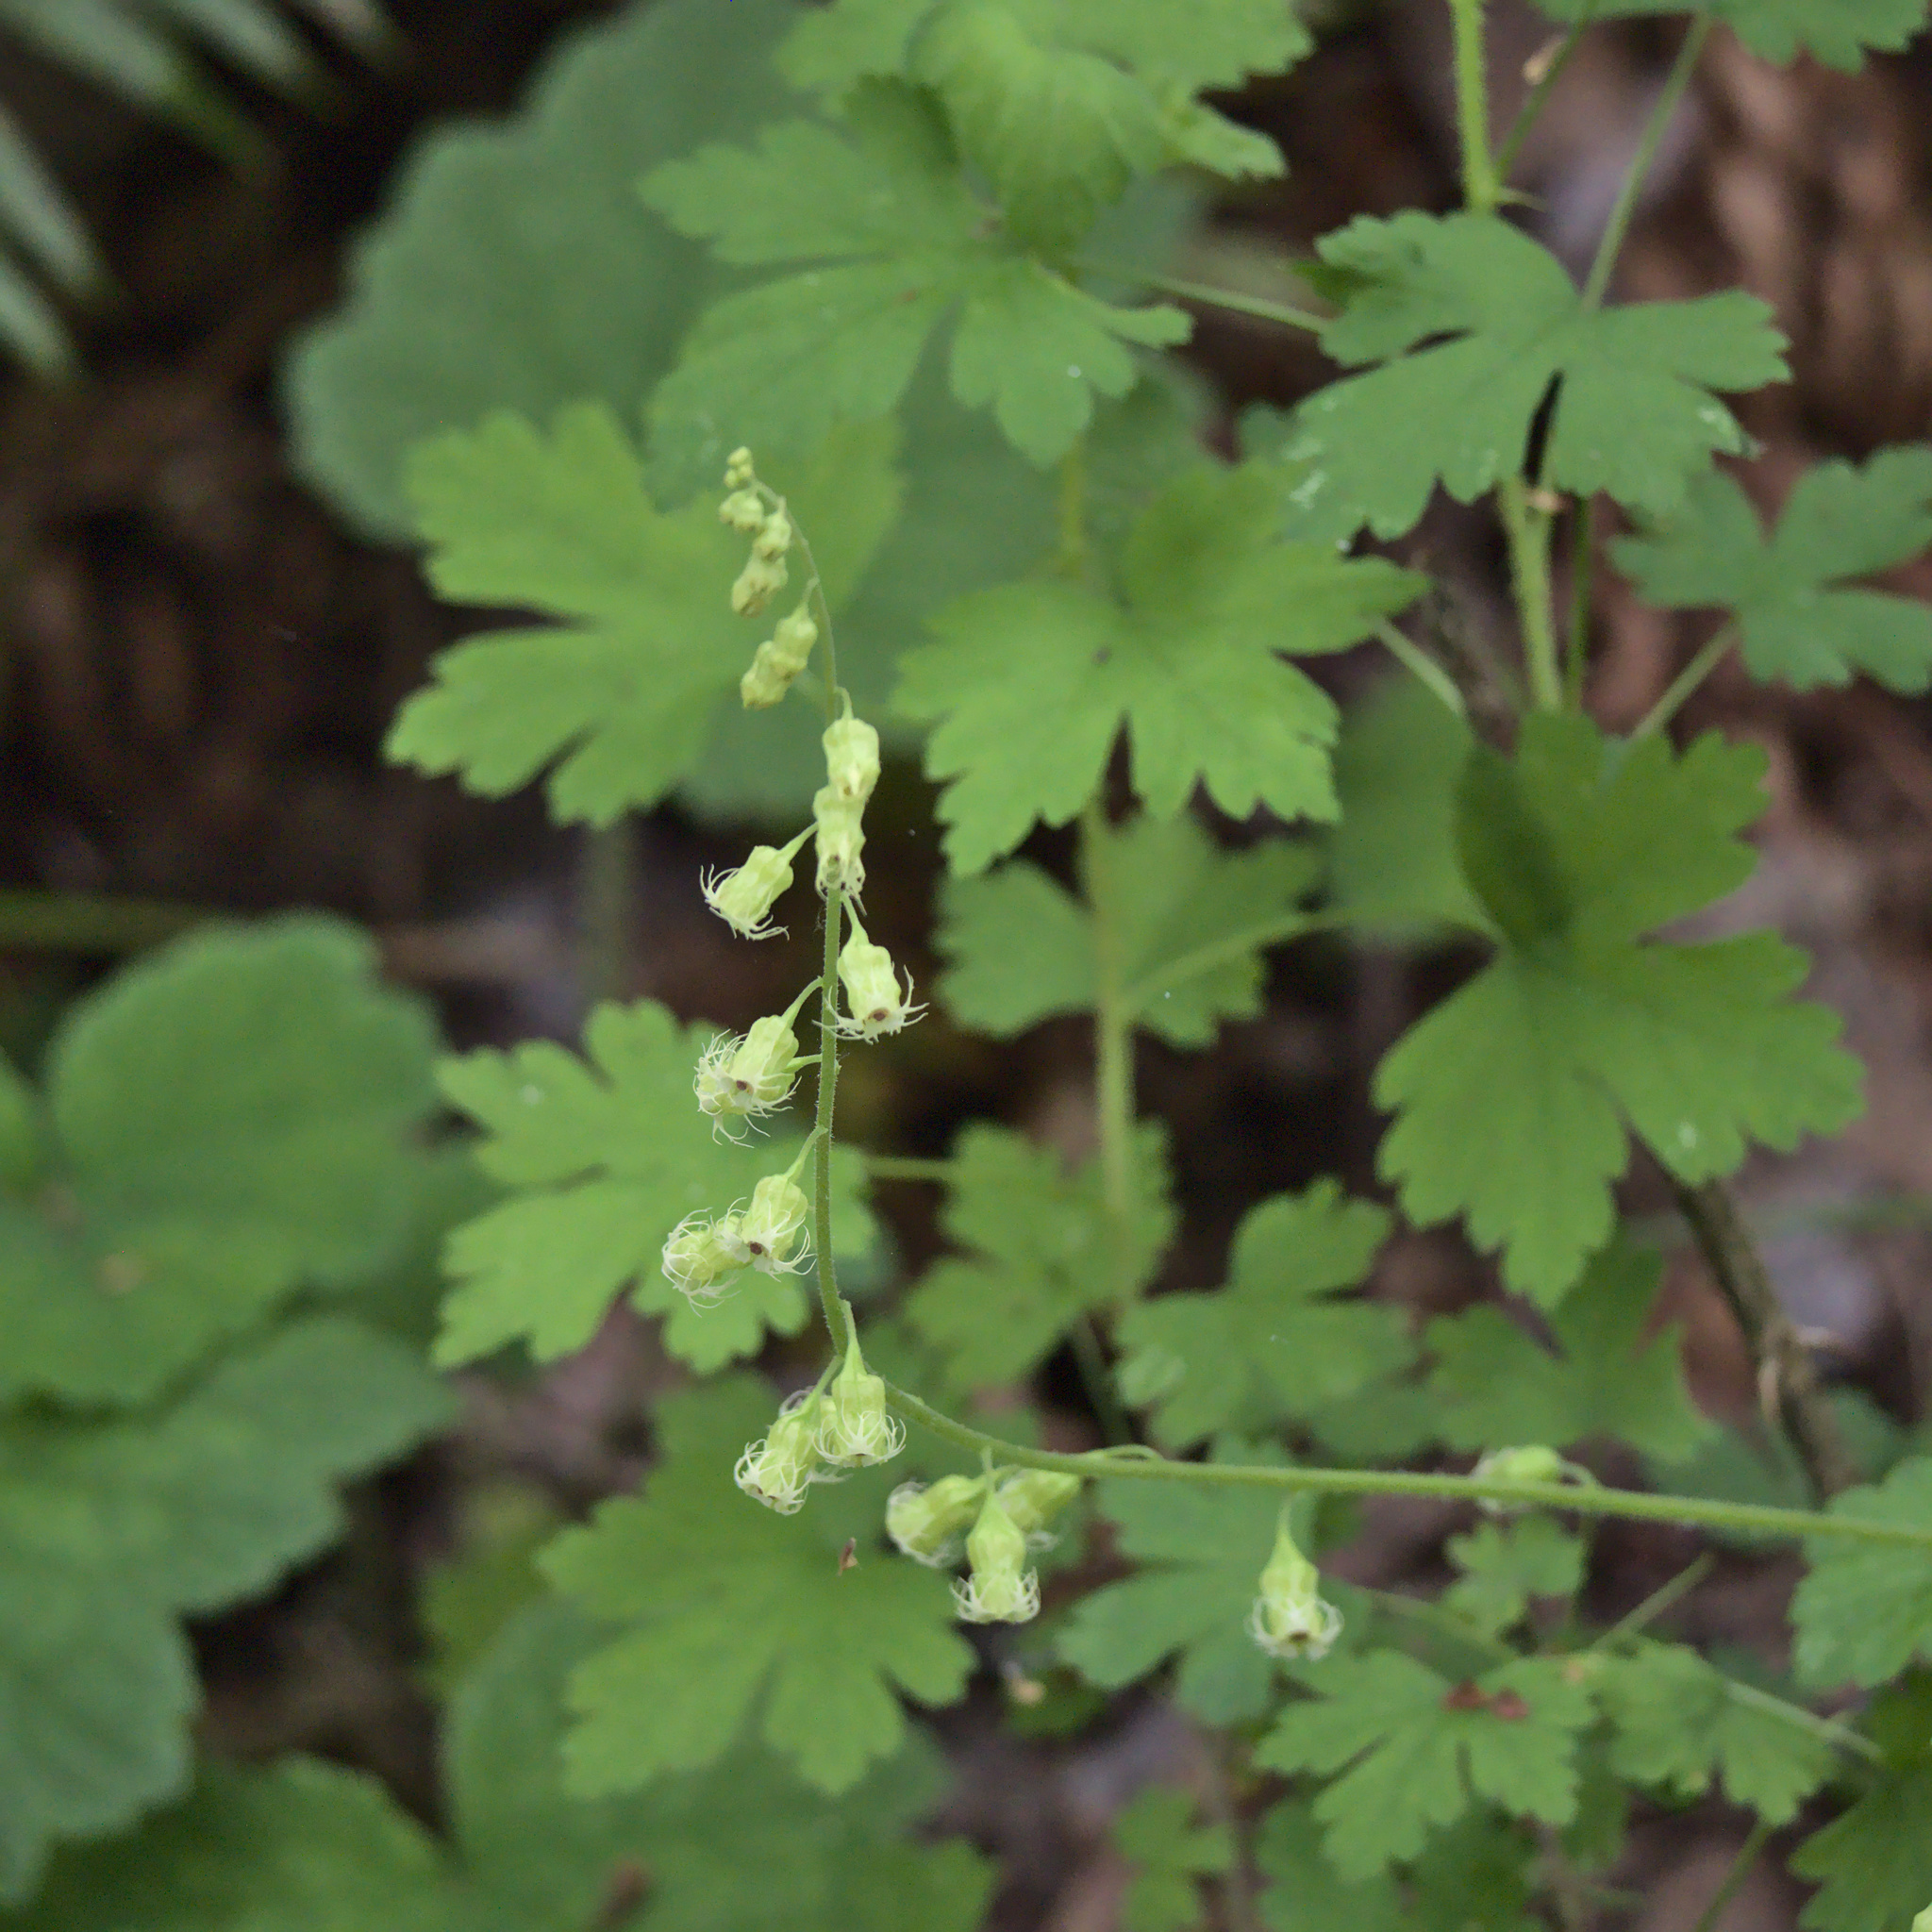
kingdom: Plantae
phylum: Tracheophyta
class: Magnoliopsida
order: Saxifragales
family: Saxifragaceae
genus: Tellima
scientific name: Tellima grandiflora
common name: Fringecups
